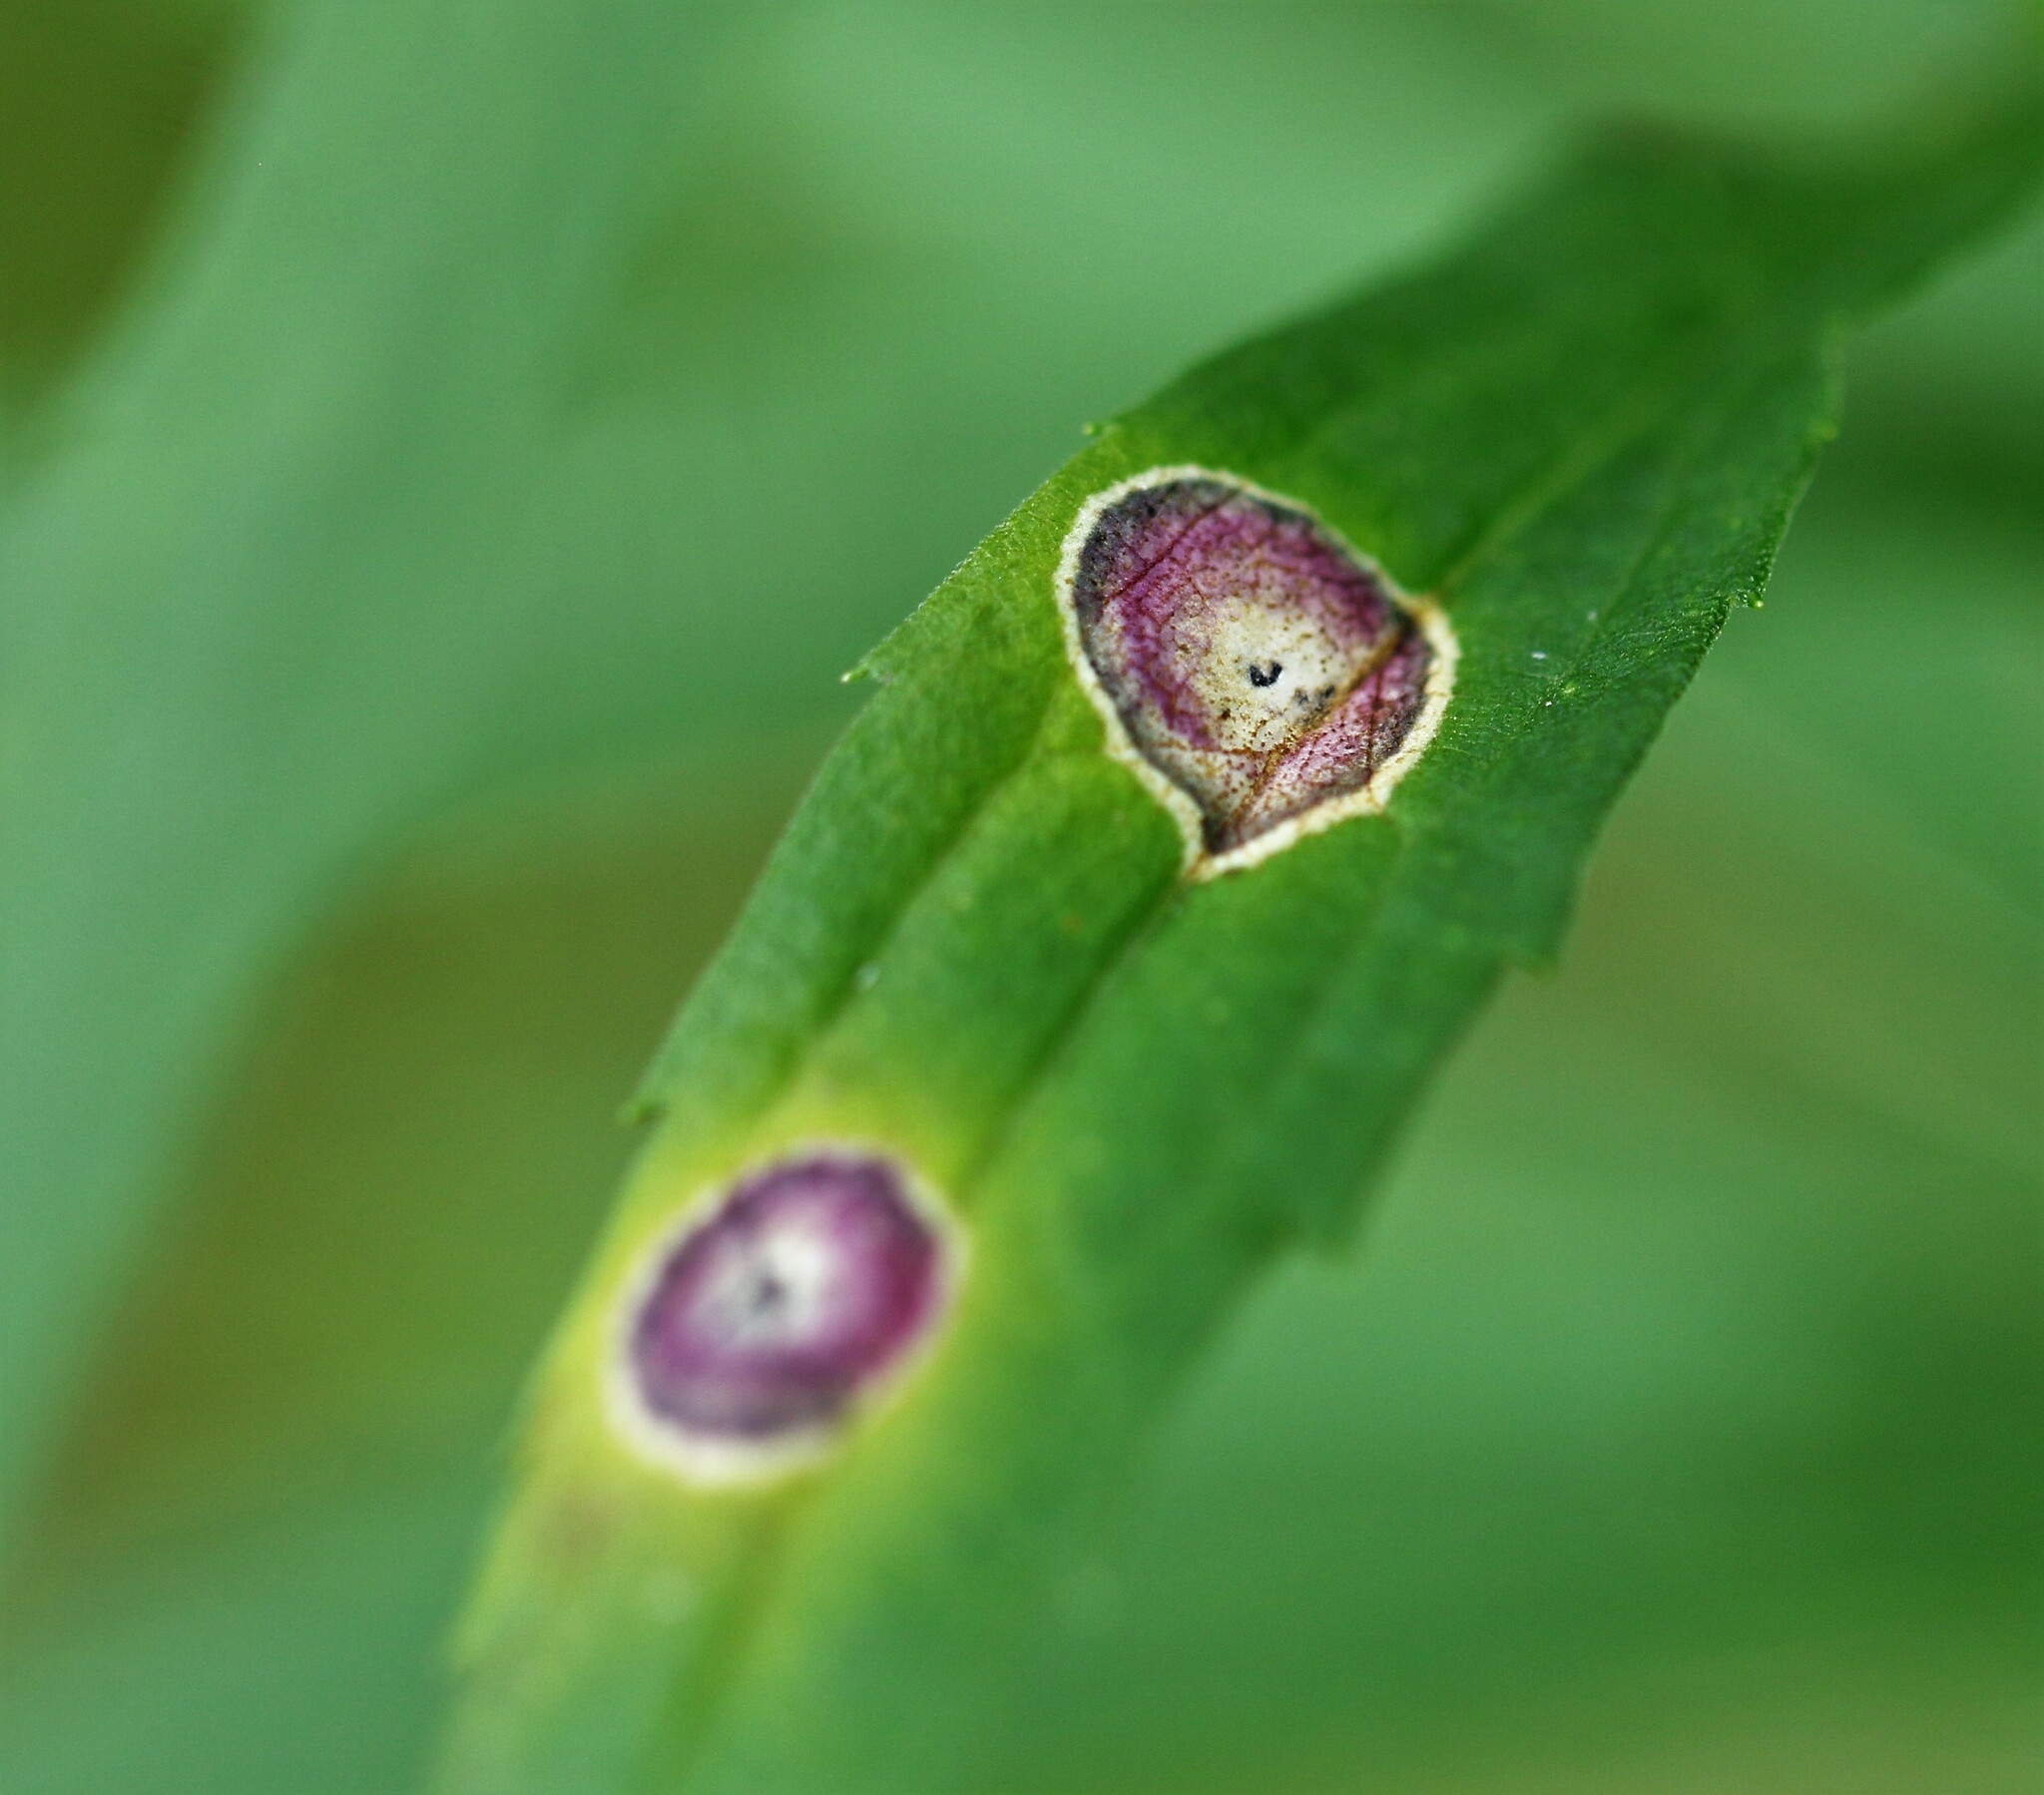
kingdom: Animalia
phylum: Arthropoda
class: Insecta
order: Diptera
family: Cecidomyiidae
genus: Asteromyia
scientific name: Asteromyia carbonifera
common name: Carbonifera goldenrod gall midge
